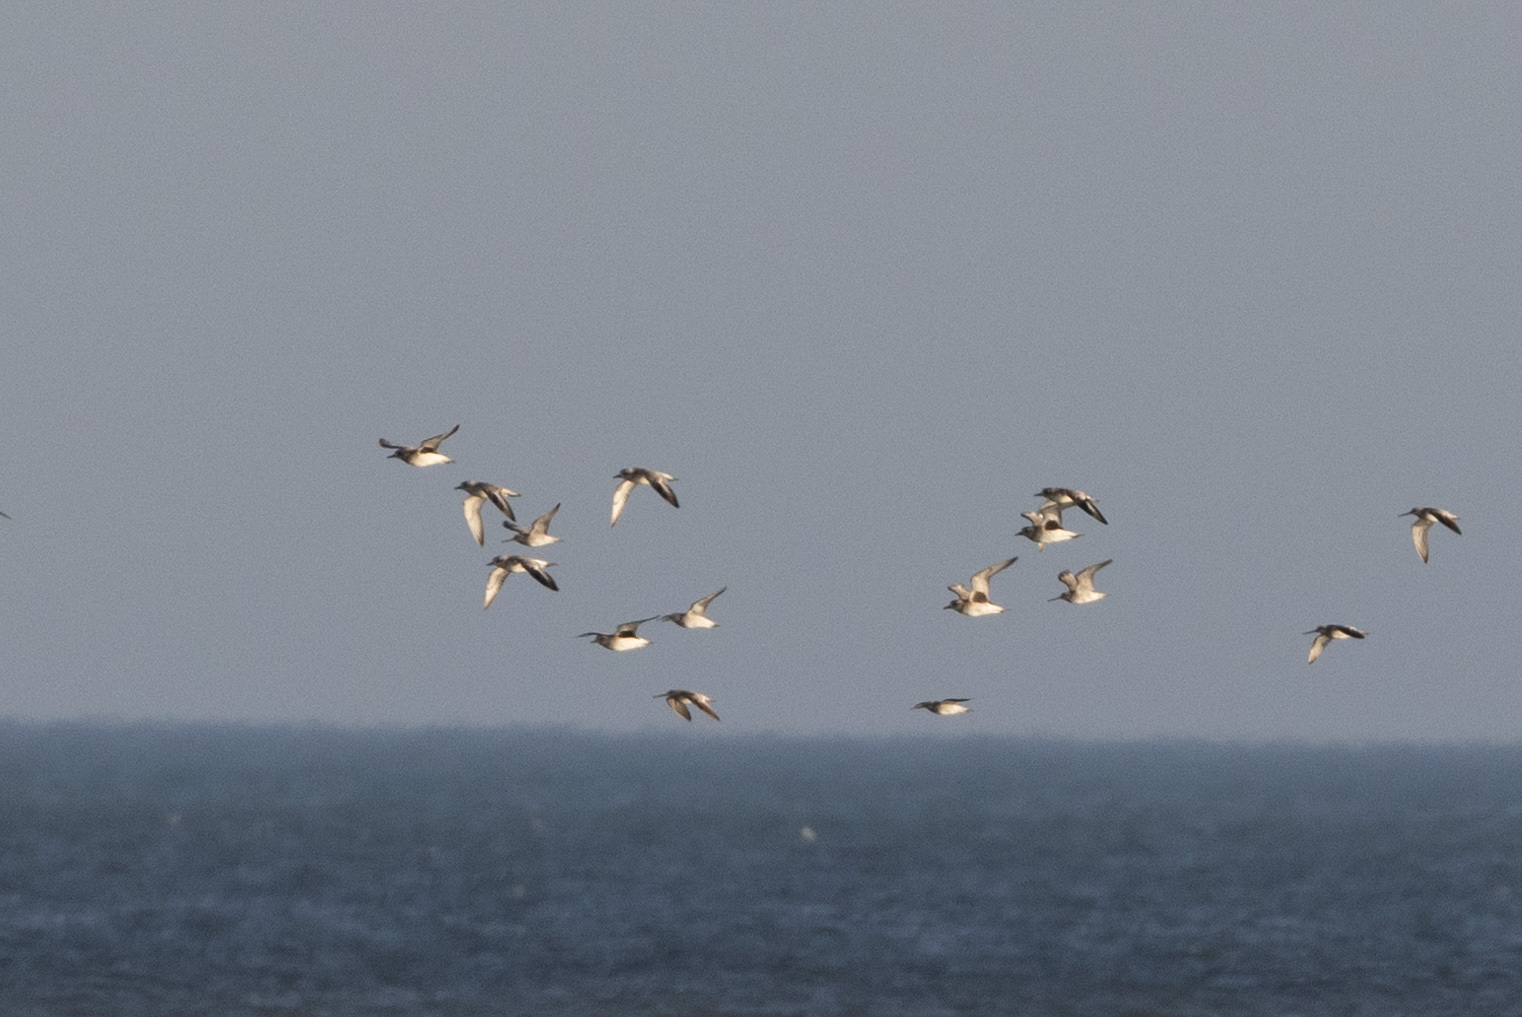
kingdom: Animalia
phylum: Chordata
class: Aves
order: Charadriiformes
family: Charadriidae
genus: Pluvialis
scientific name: Pluvialis squatarola
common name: Grey plover
